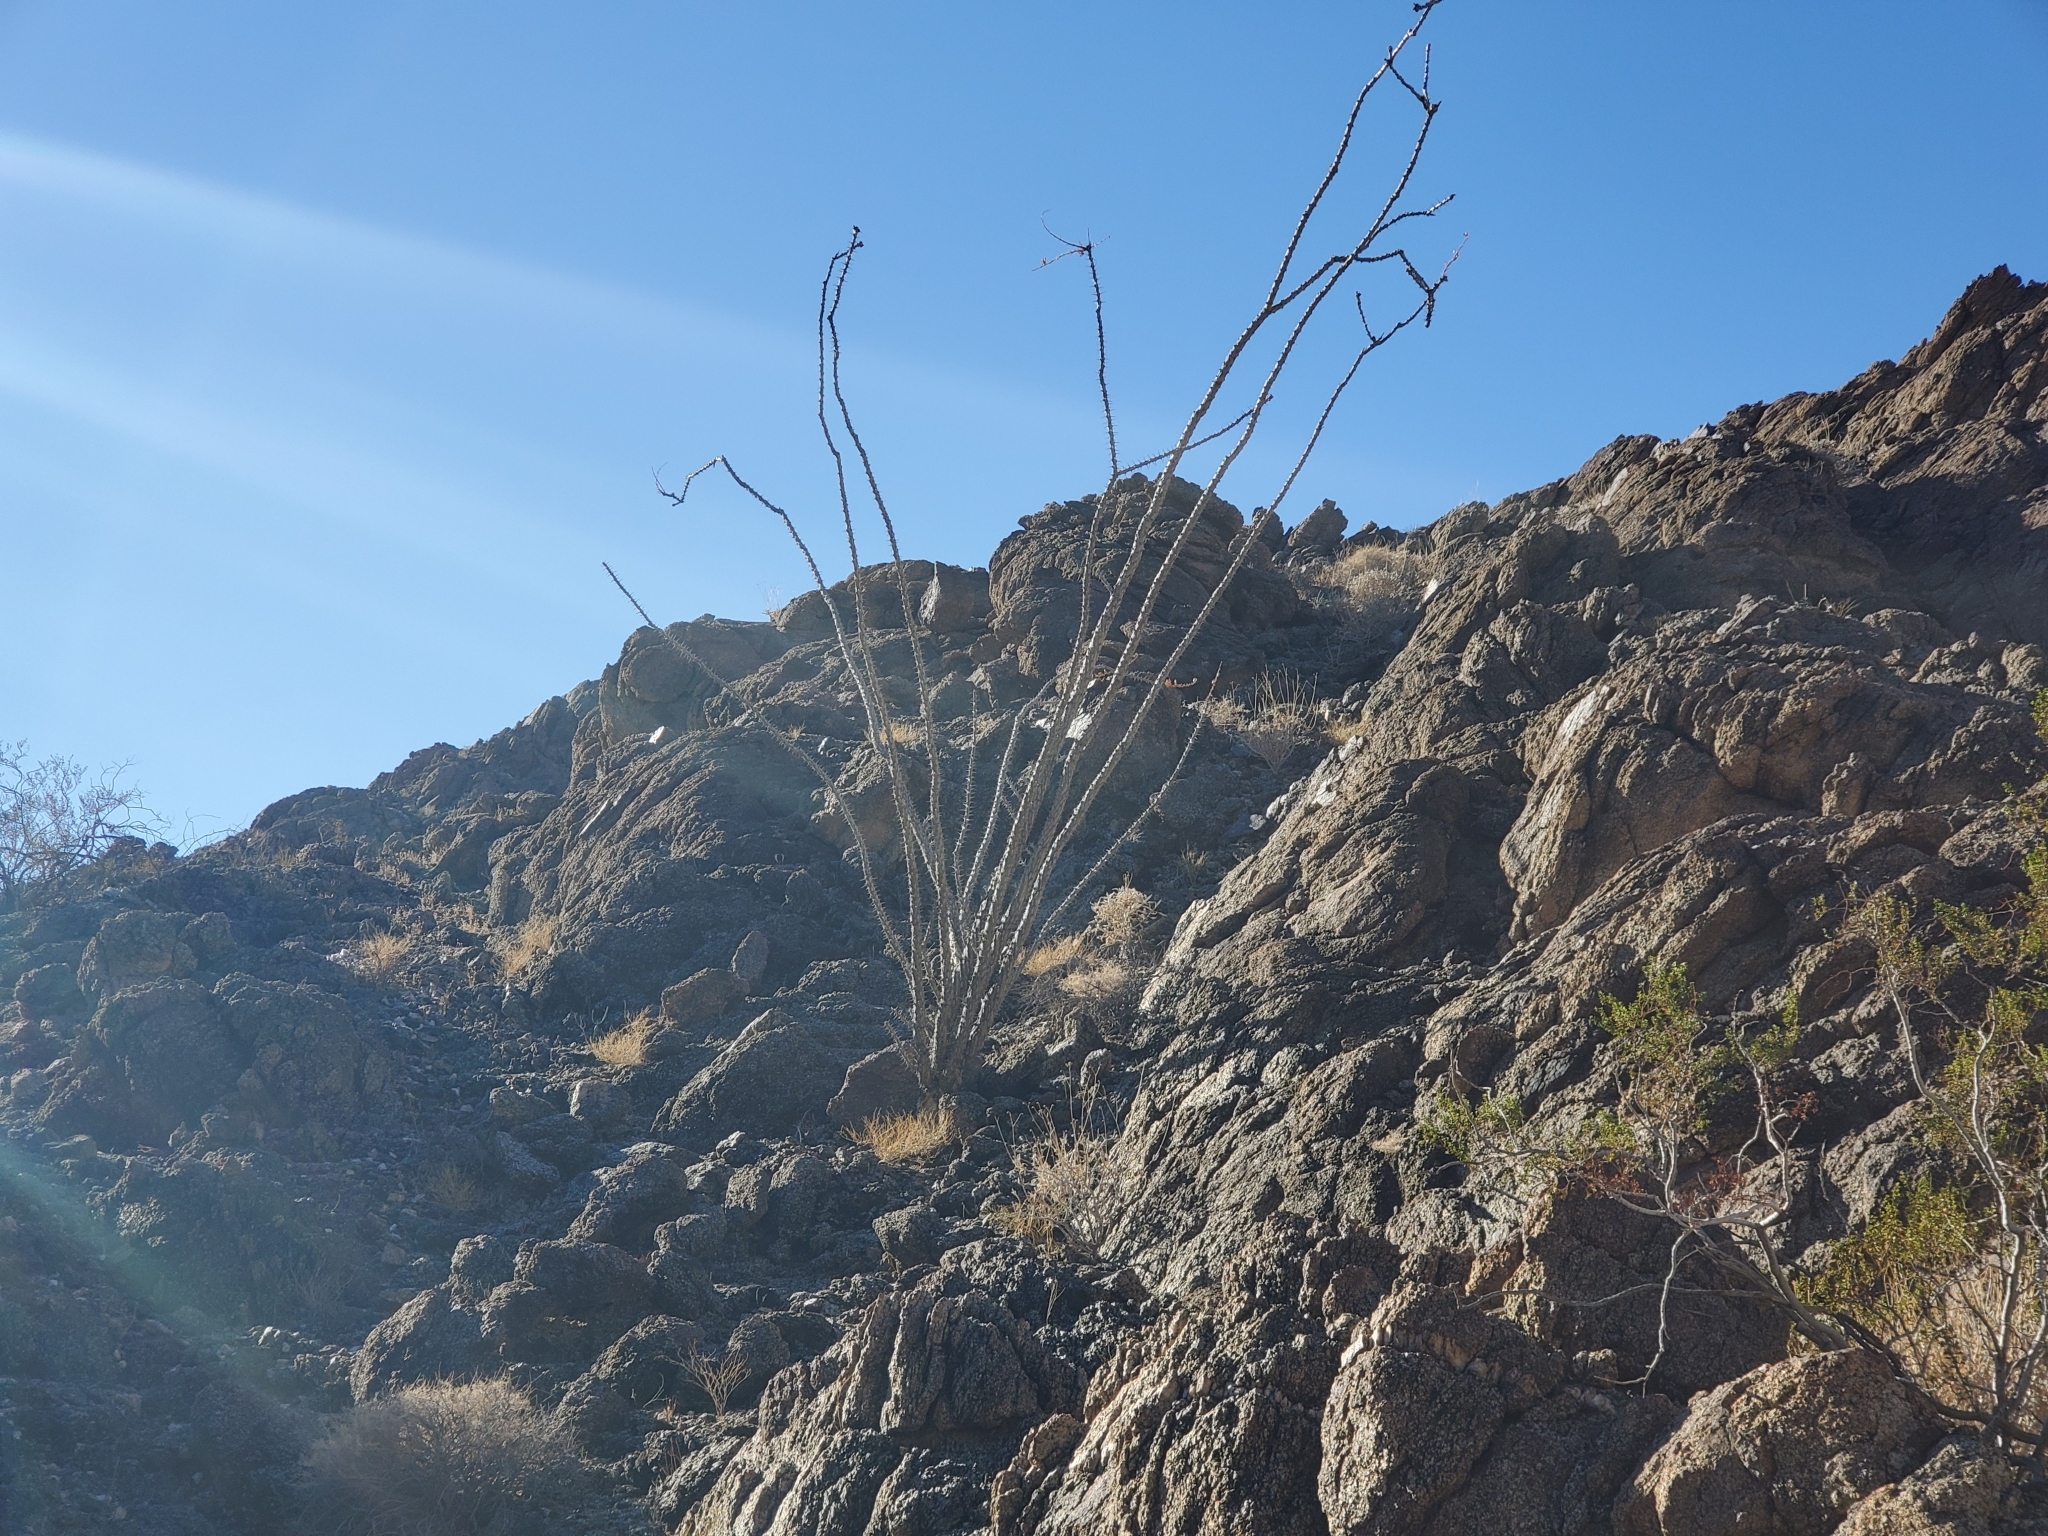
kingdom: Plantae
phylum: Tracheophyta
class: Magnoliopsida
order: Ericales
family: Fouquieriaceae
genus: Fouquieria
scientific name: Fouquieria splendens
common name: Vine-cactus
